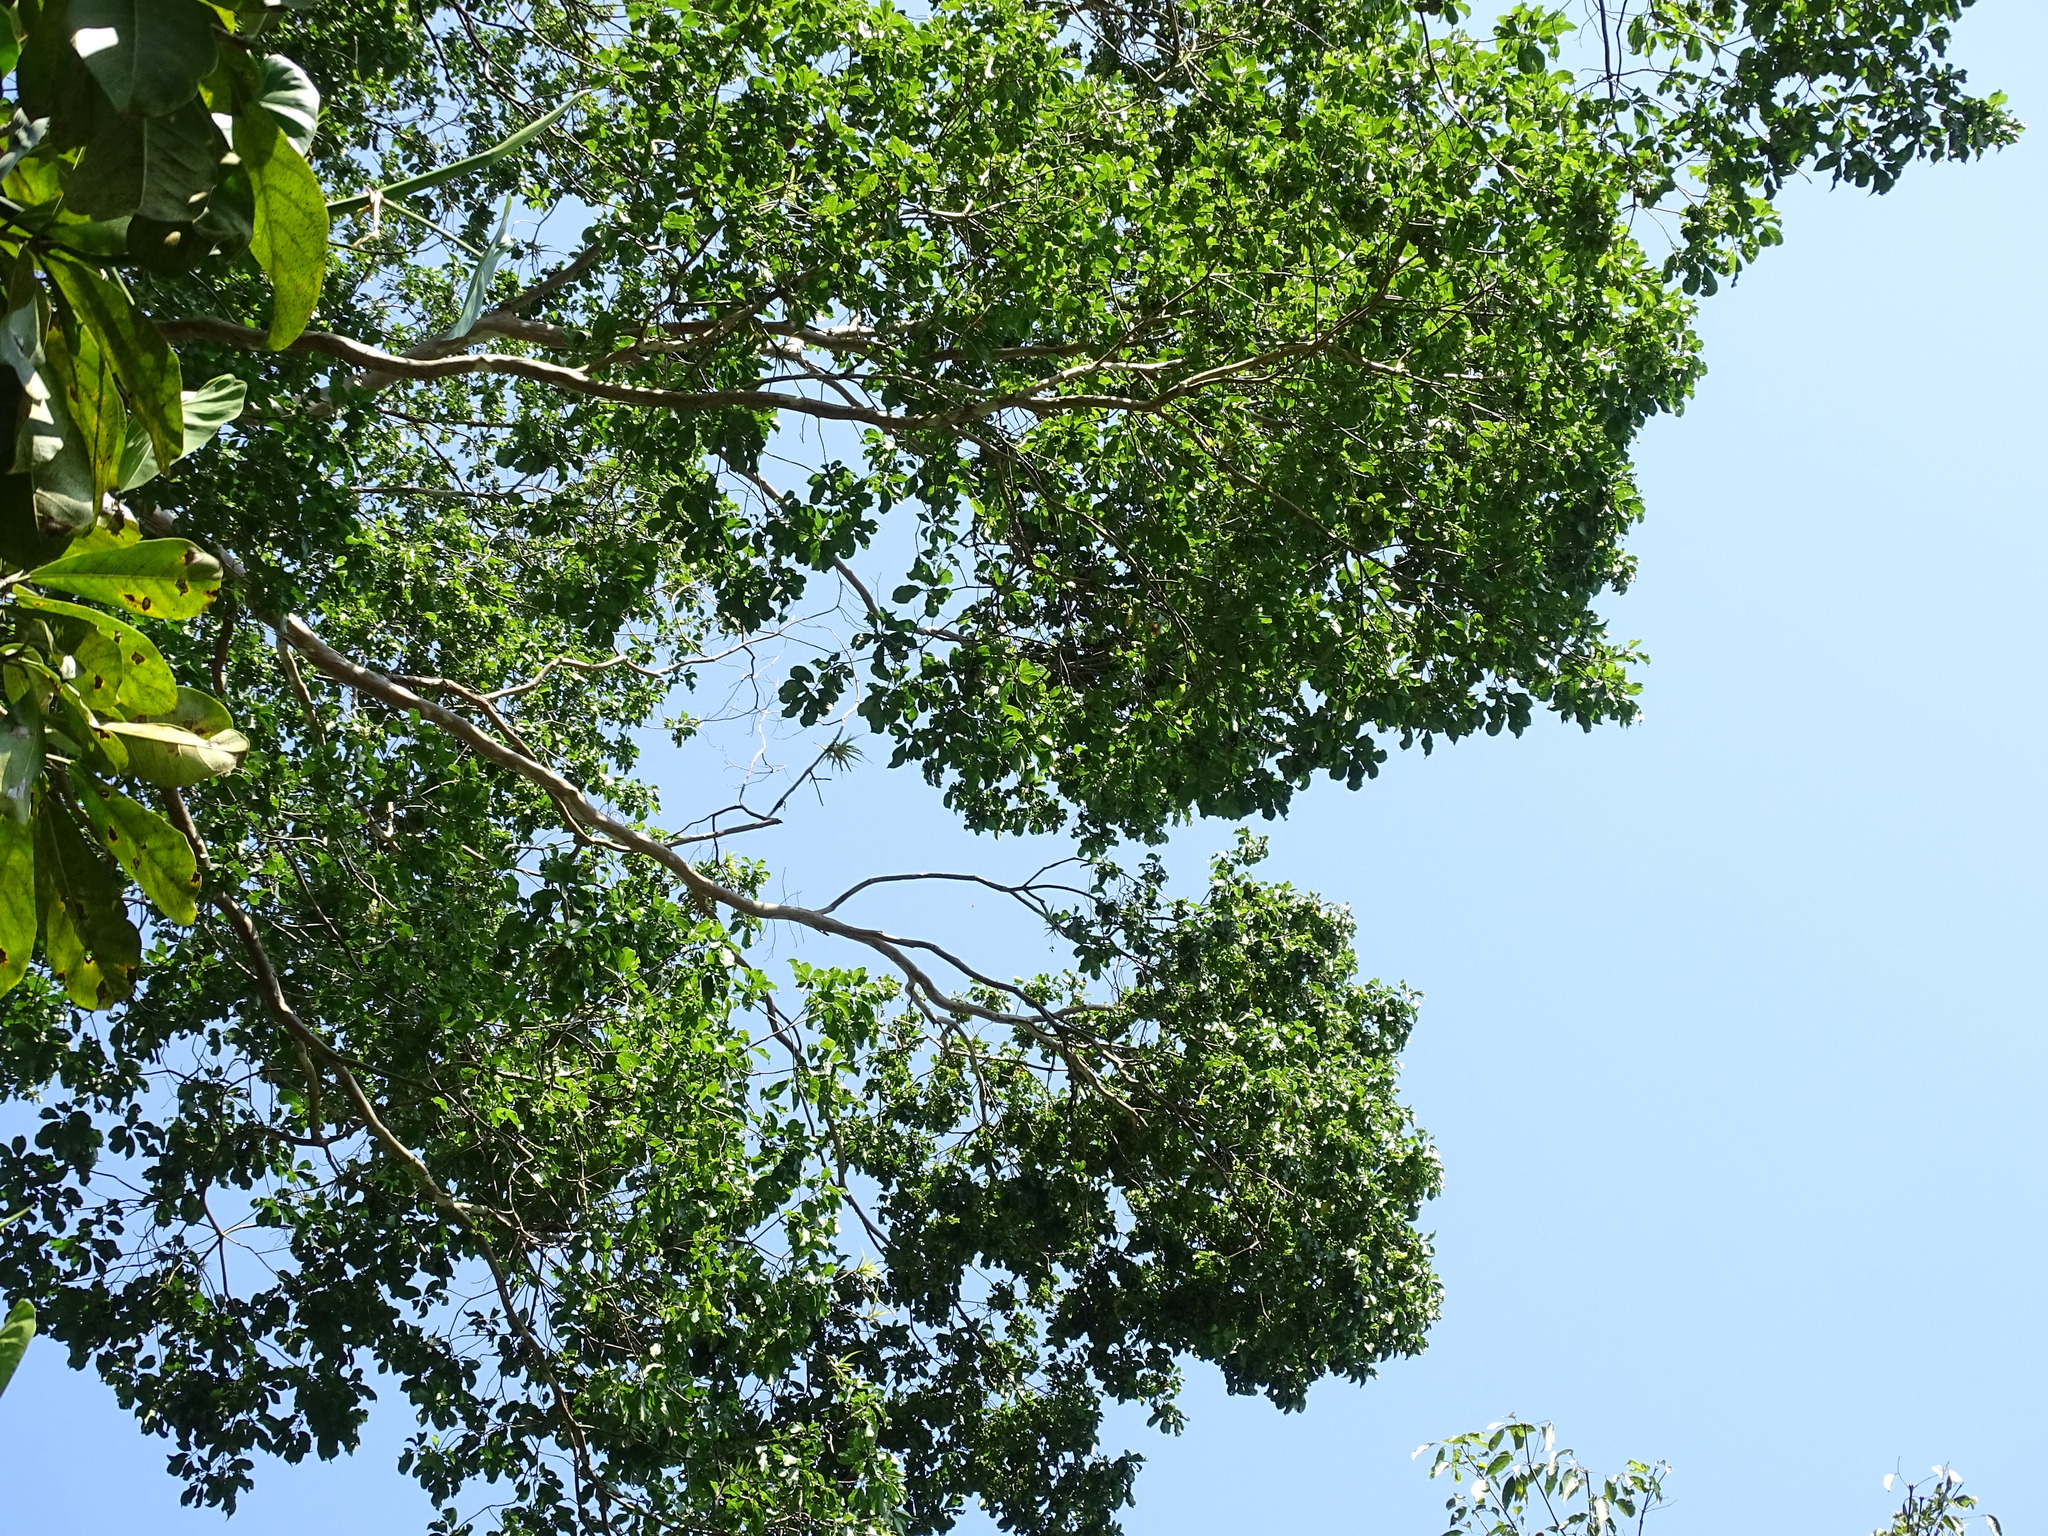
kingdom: Plantae
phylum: Tracheophyta
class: Magnoliopsida
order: Myrtales
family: Combretaceae
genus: Terminalia
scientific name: Terminalia oblonga
